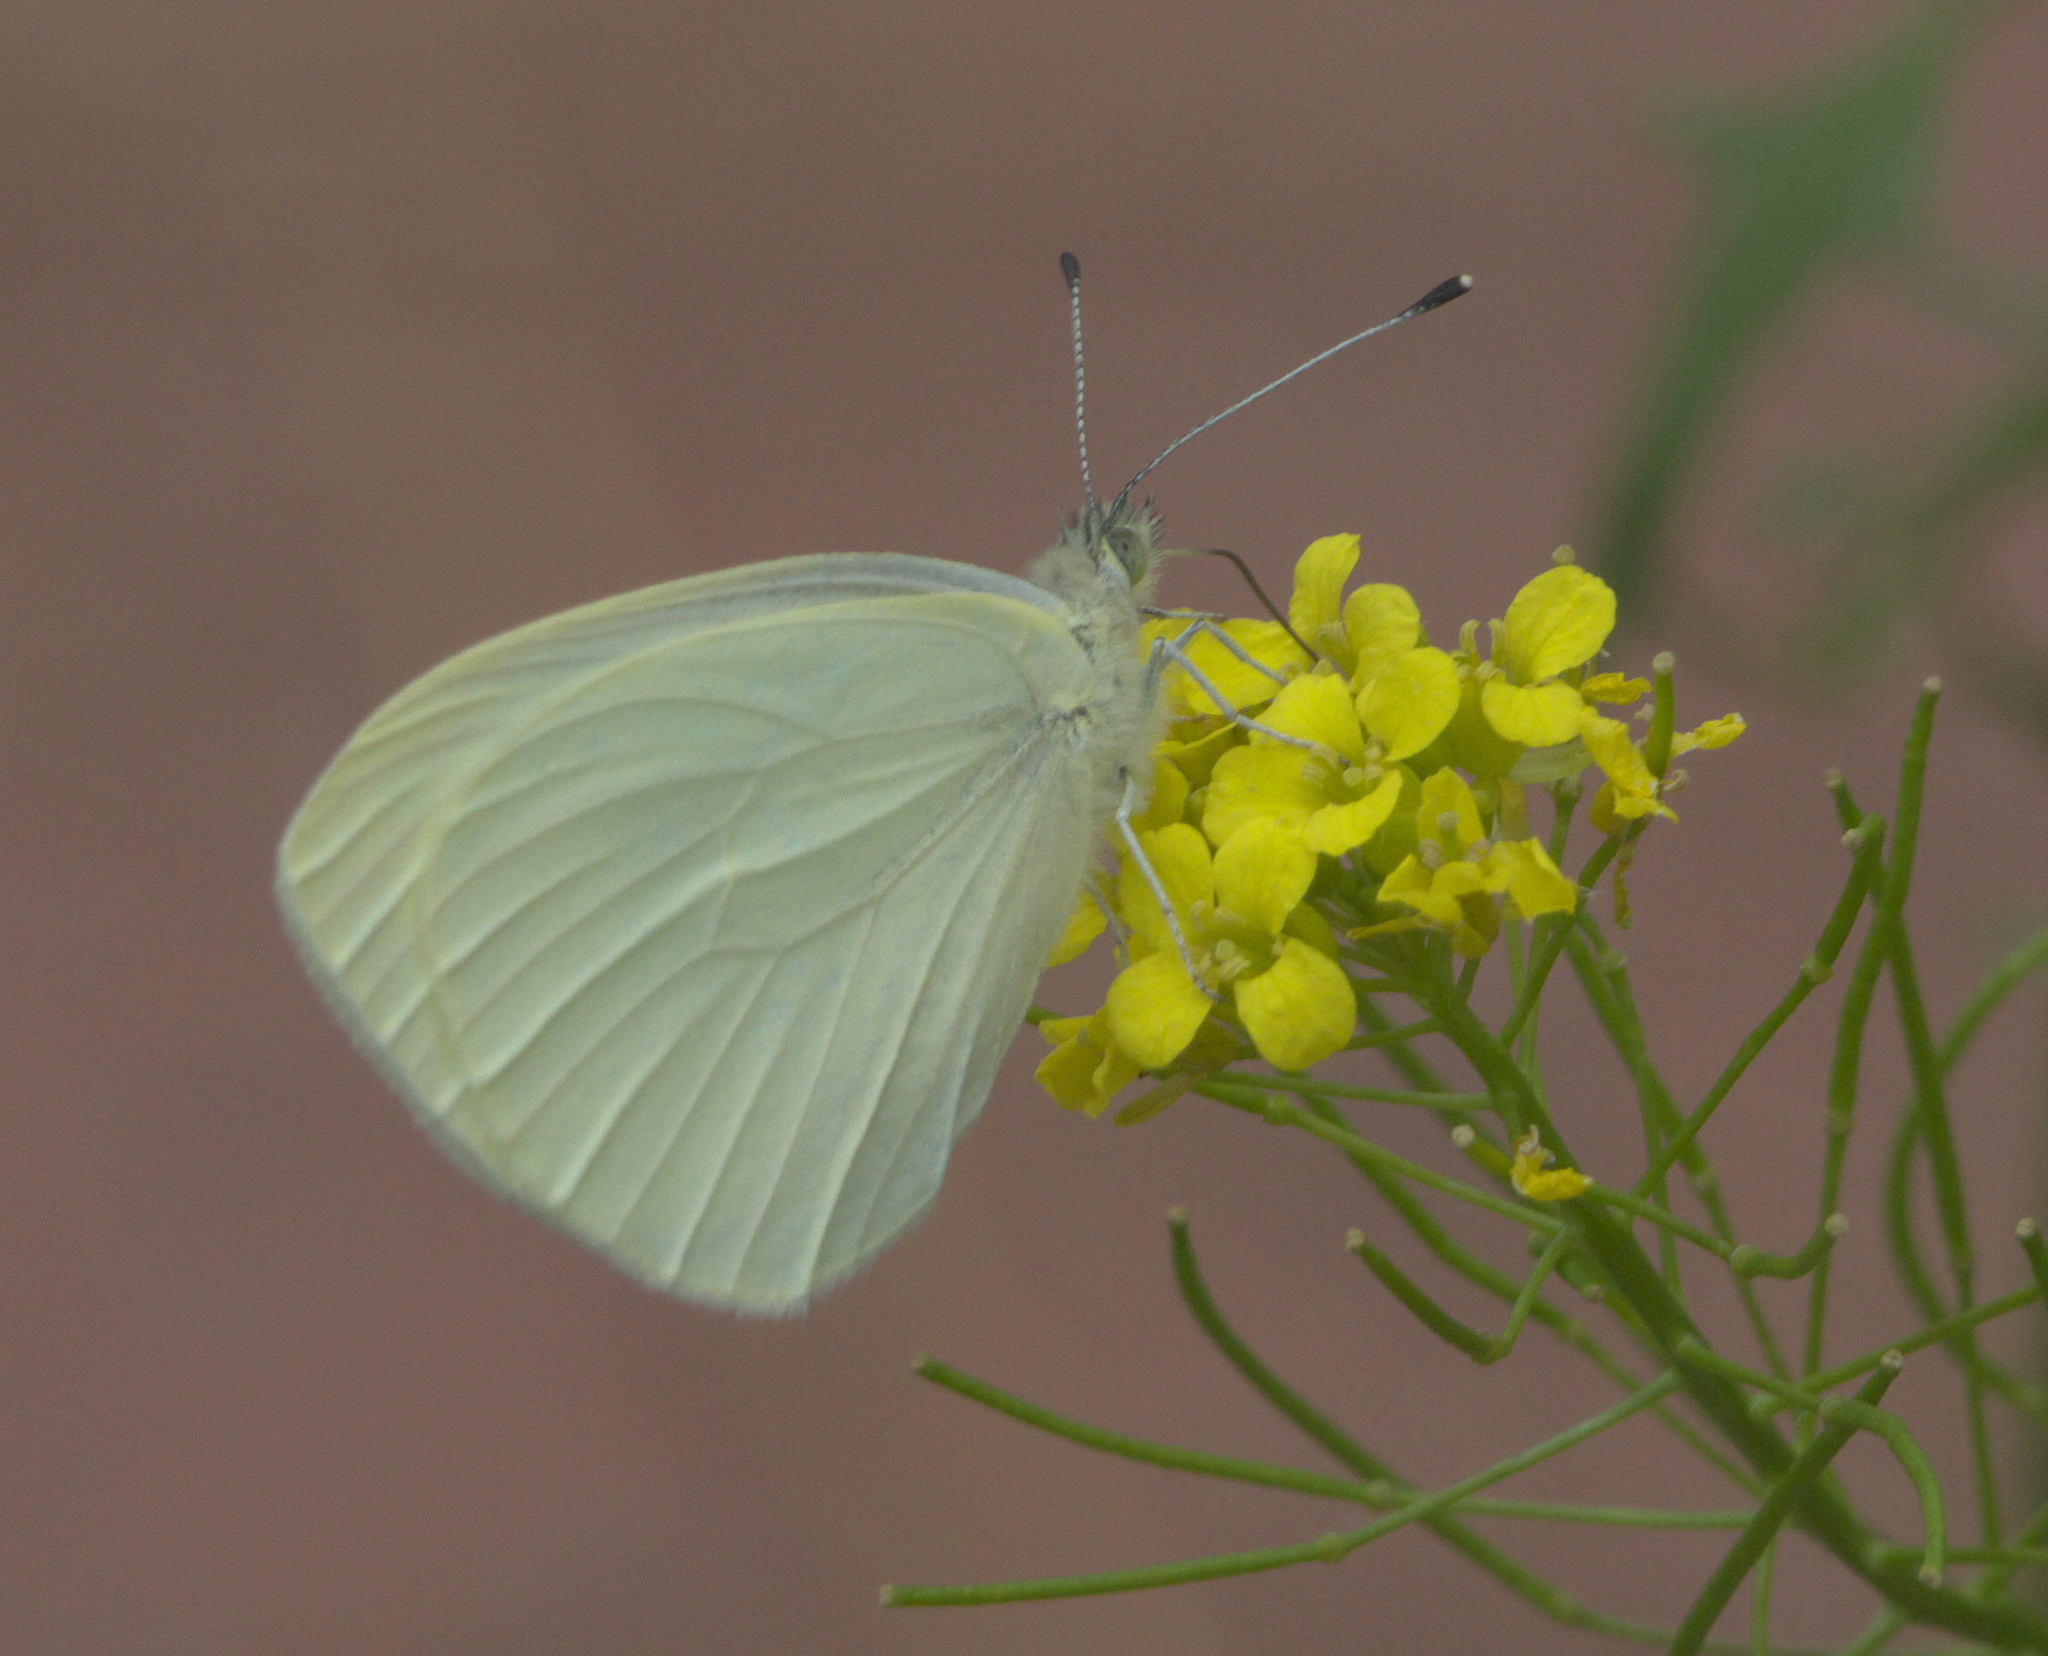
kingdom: Animalia
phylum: Arthropoda
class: Insecta
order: Lepidoptera
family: Pieridae
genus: Pieris
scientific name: Pieris marginalis
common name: Margined white
